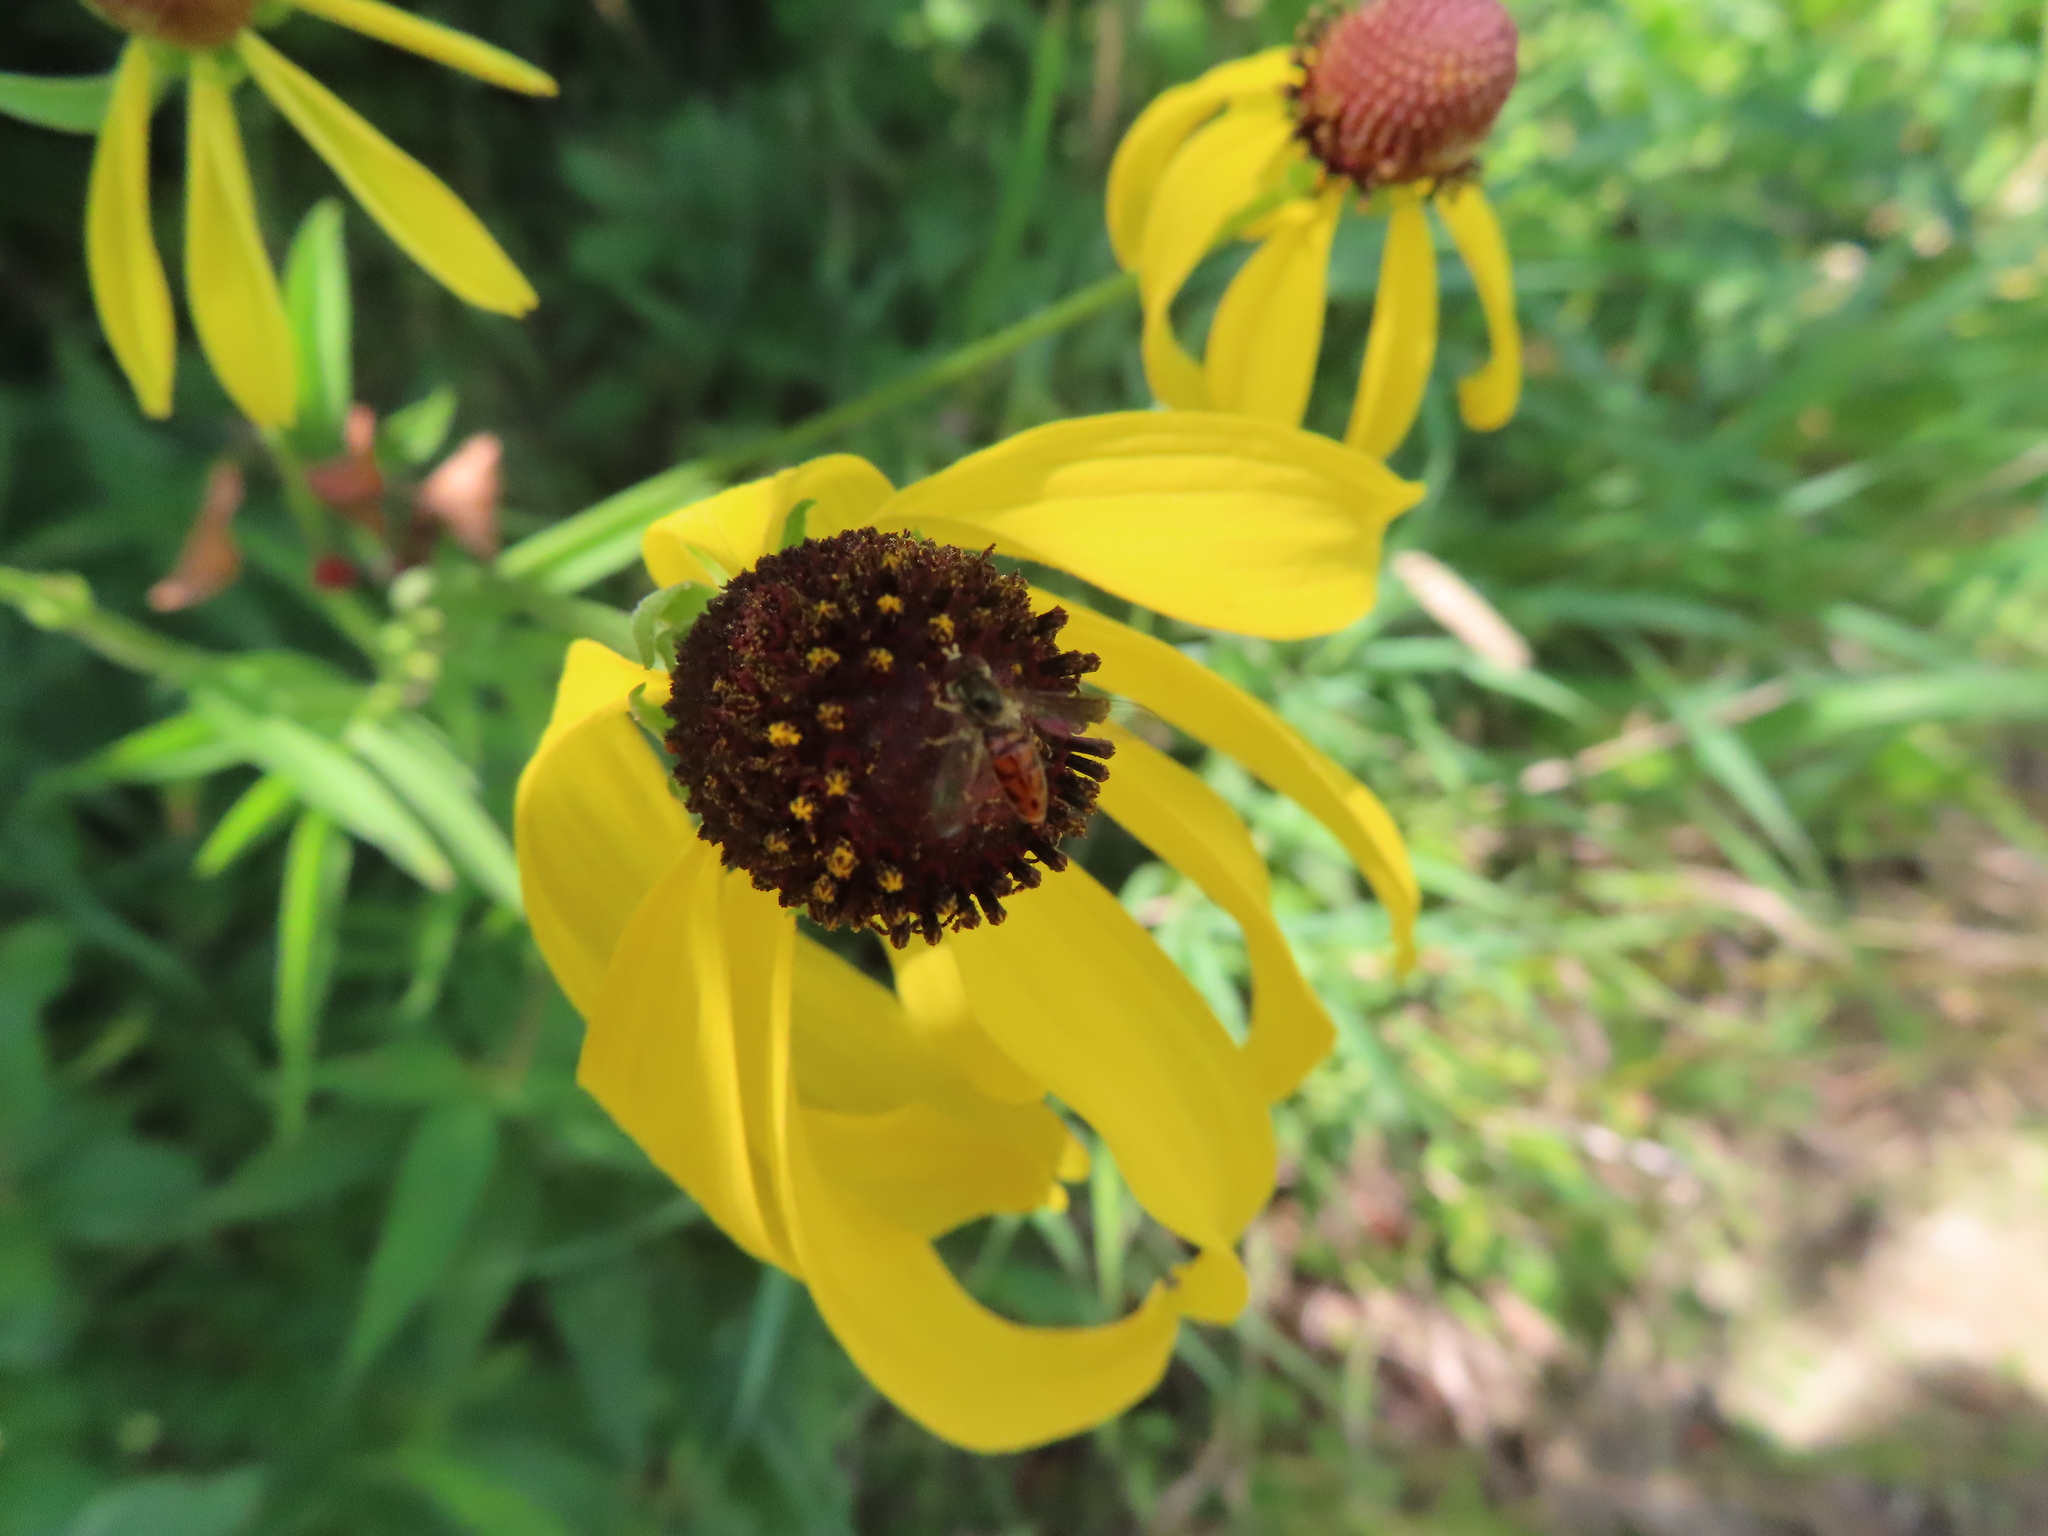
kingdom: Animalia
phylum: Arthropoda
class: Insecta
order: Diptera
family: Syrphidae
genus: Toxomerus
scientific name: Toxomerus marginatus
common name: Syrphid fly
